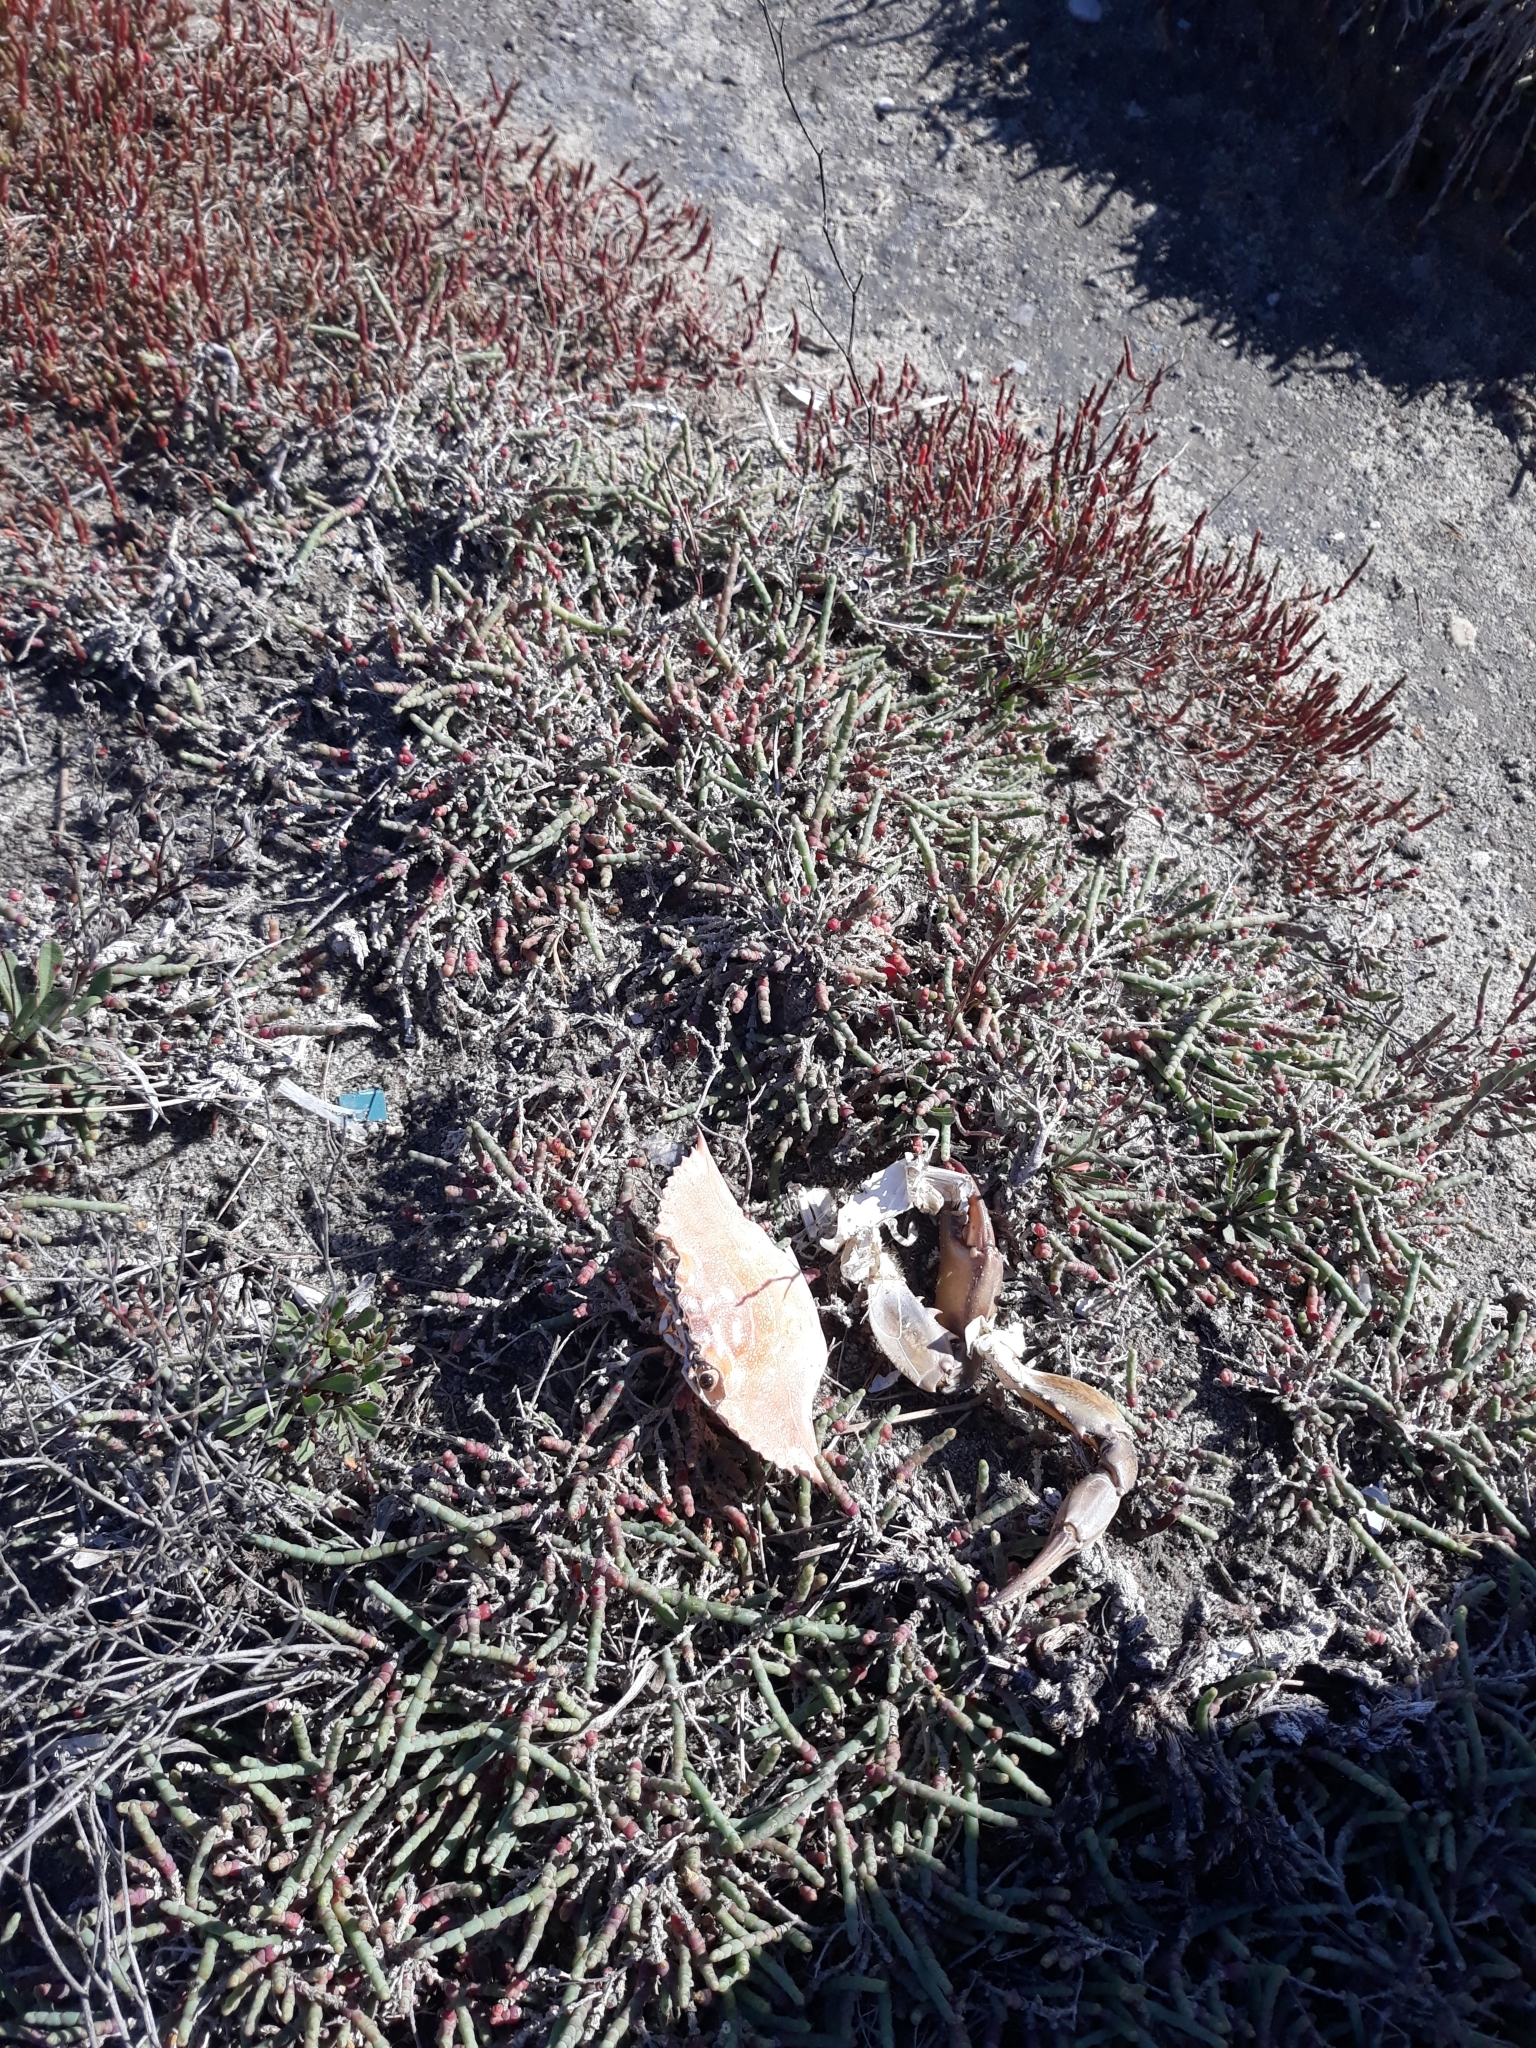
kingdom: Animalia
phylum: Arthropoda
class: Malacostraca
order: Decapoda
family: Portunidae
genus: Callinectes
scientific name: Callinectes sapidus
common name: Blue crab
